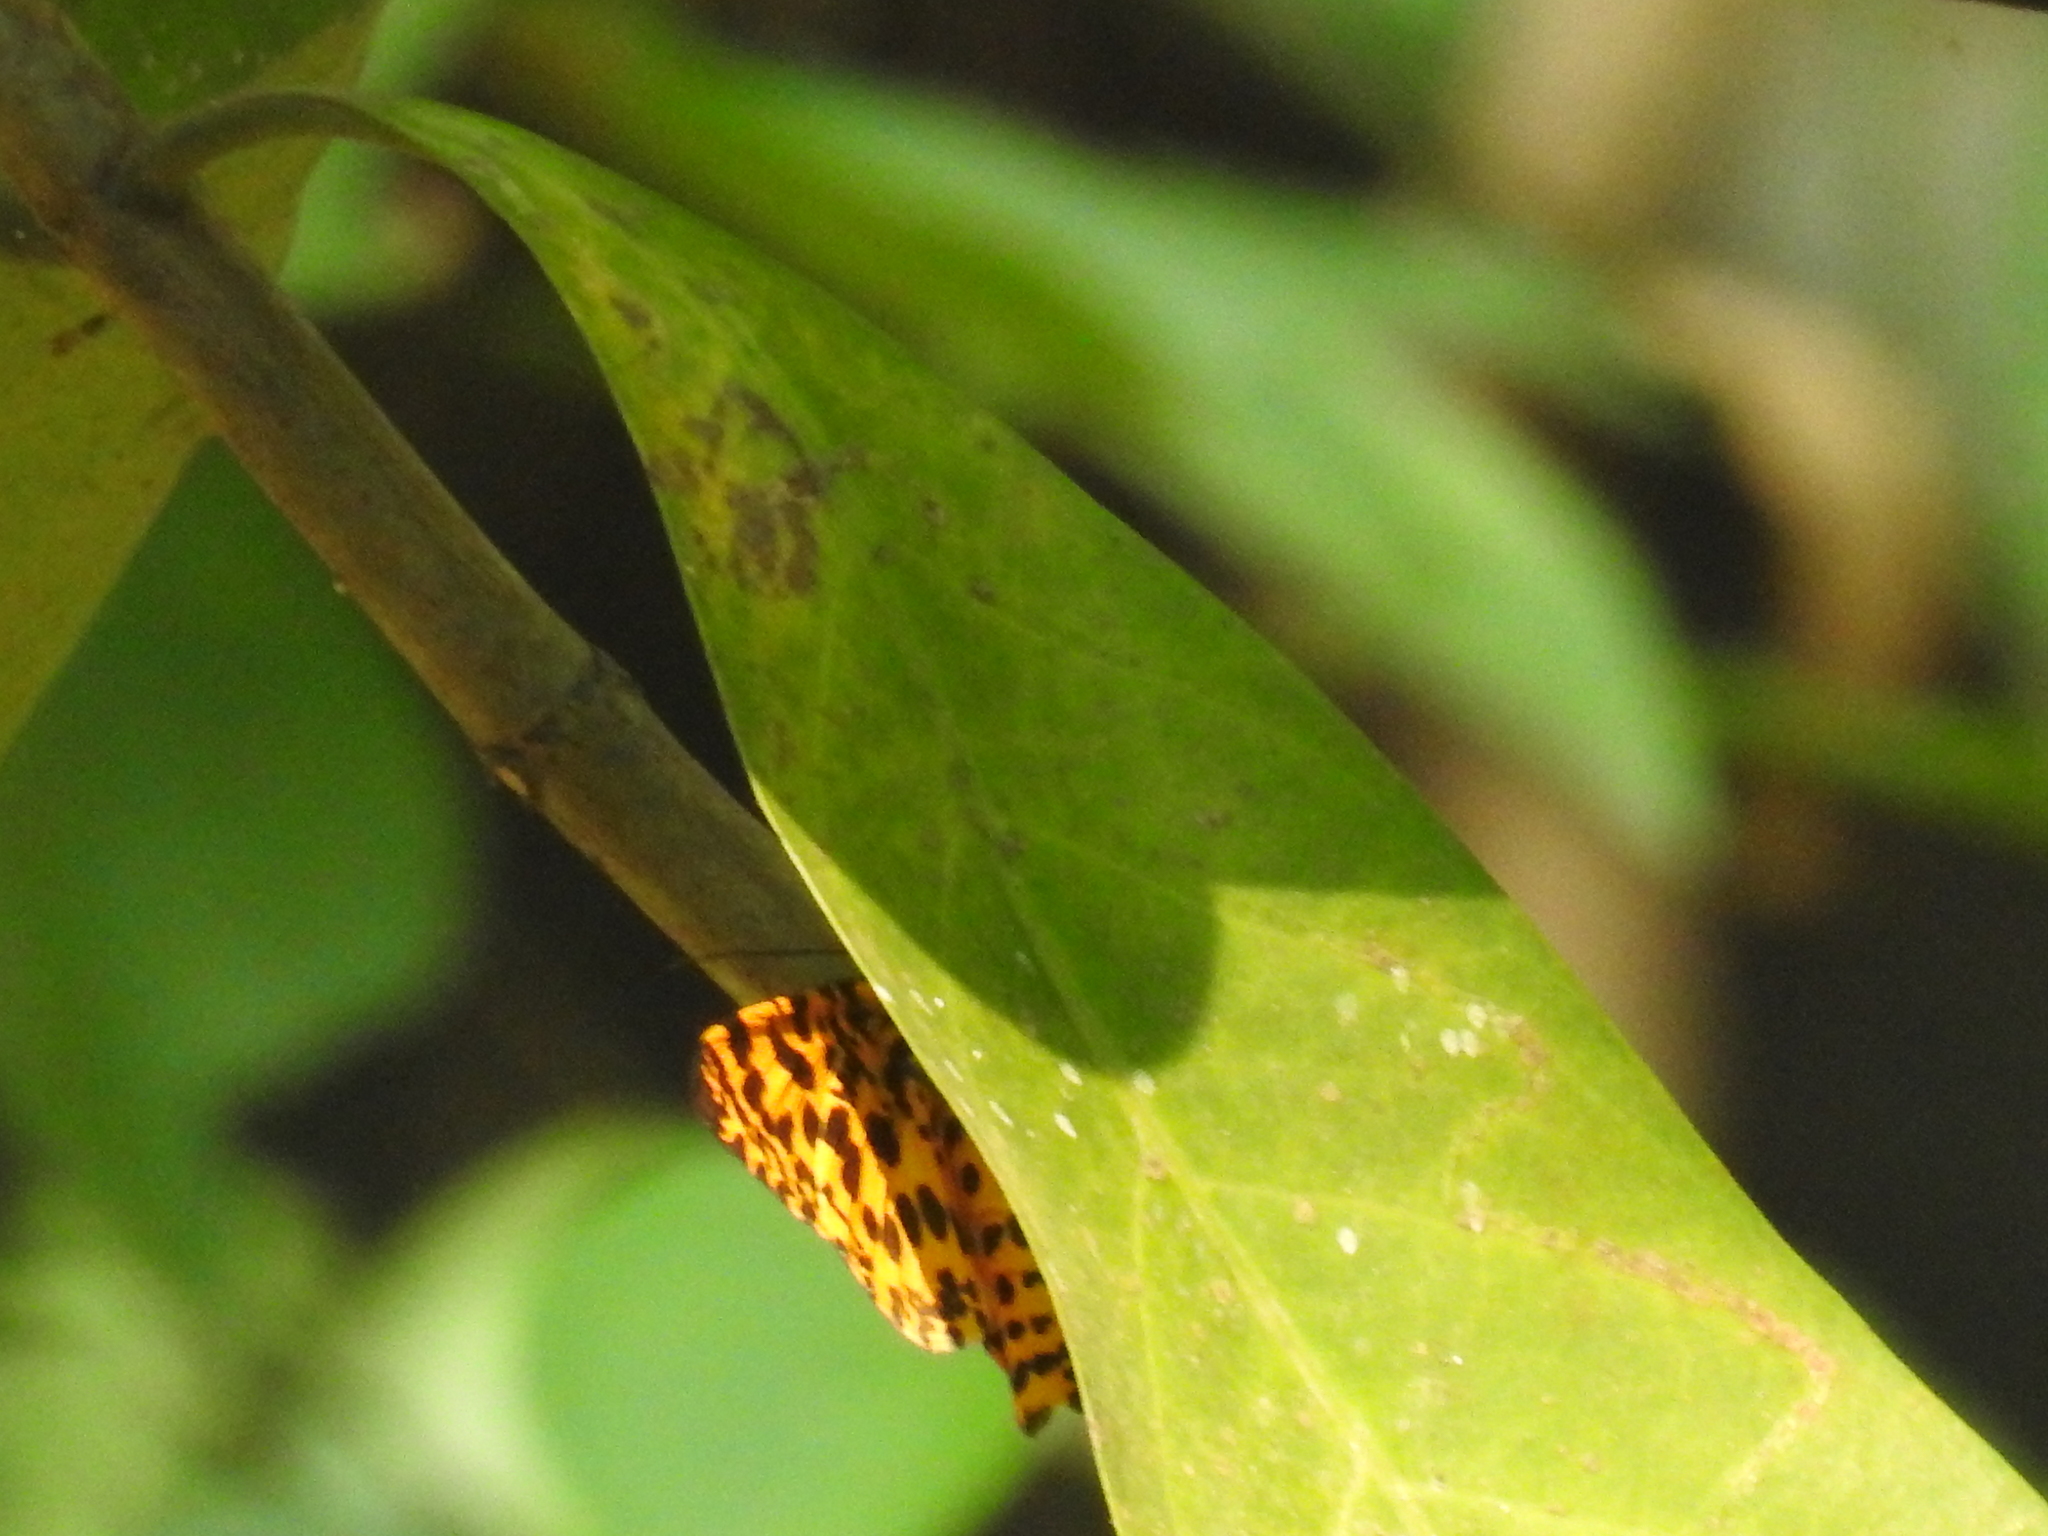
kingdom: Animalia
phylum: Arthropoda
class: Insecta
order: Lepidoptera
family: Geometridae
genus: Obeidia
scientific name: Obeidia Epobeidia tigrata
